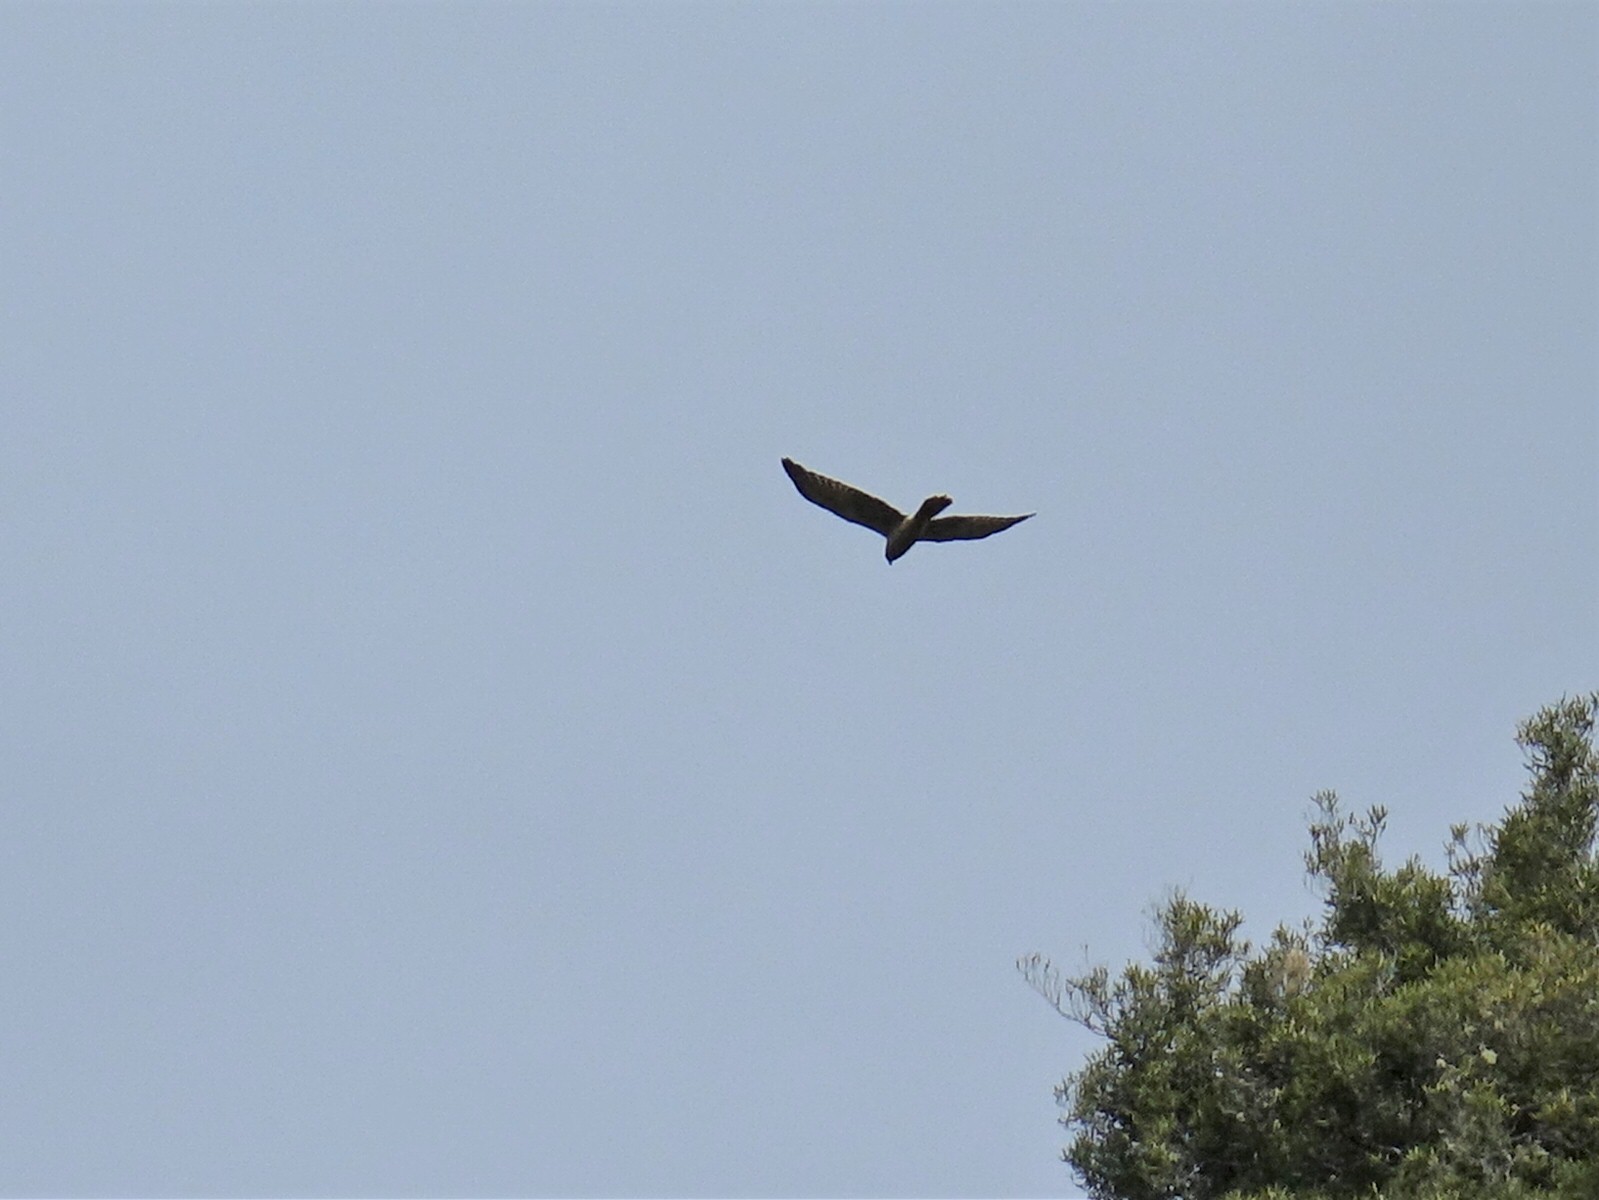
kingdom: Animalia
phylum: Chordata
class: Aves
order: Accipitriformes
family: Accipitridae
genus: Circus
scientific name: Circus approximans
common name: Swamp harrier
